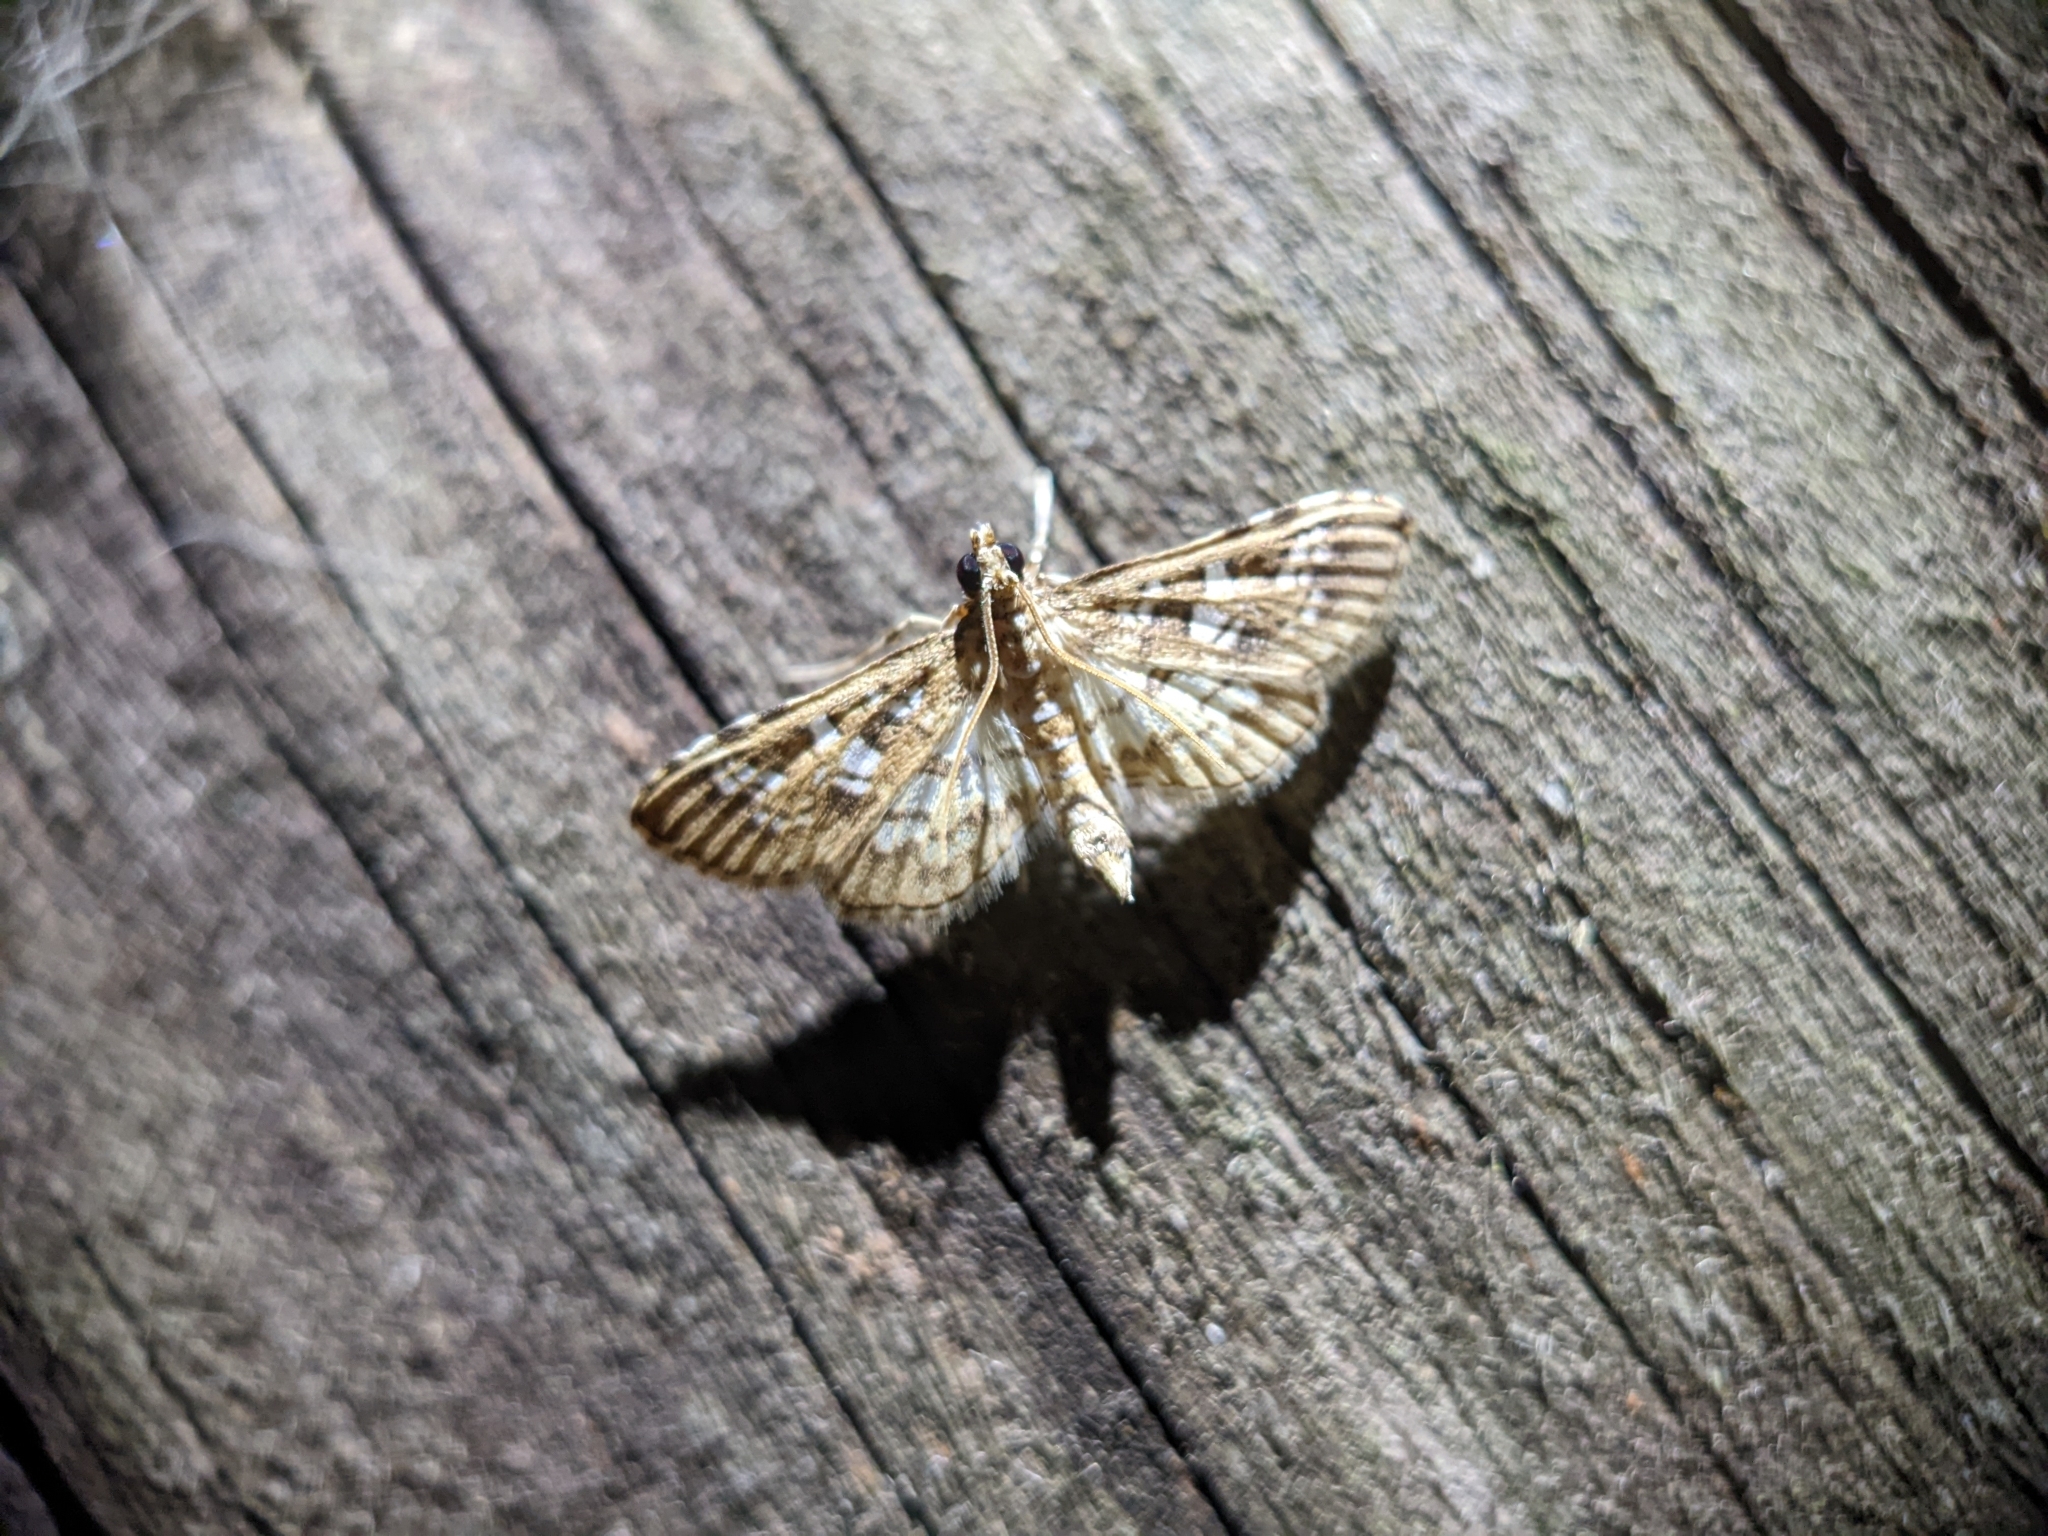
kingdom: Animalia
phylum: Arthropoda
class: Insecta
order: Lepidoptera
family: Crambidae
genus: Samea
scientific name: Samea multiplicalis
